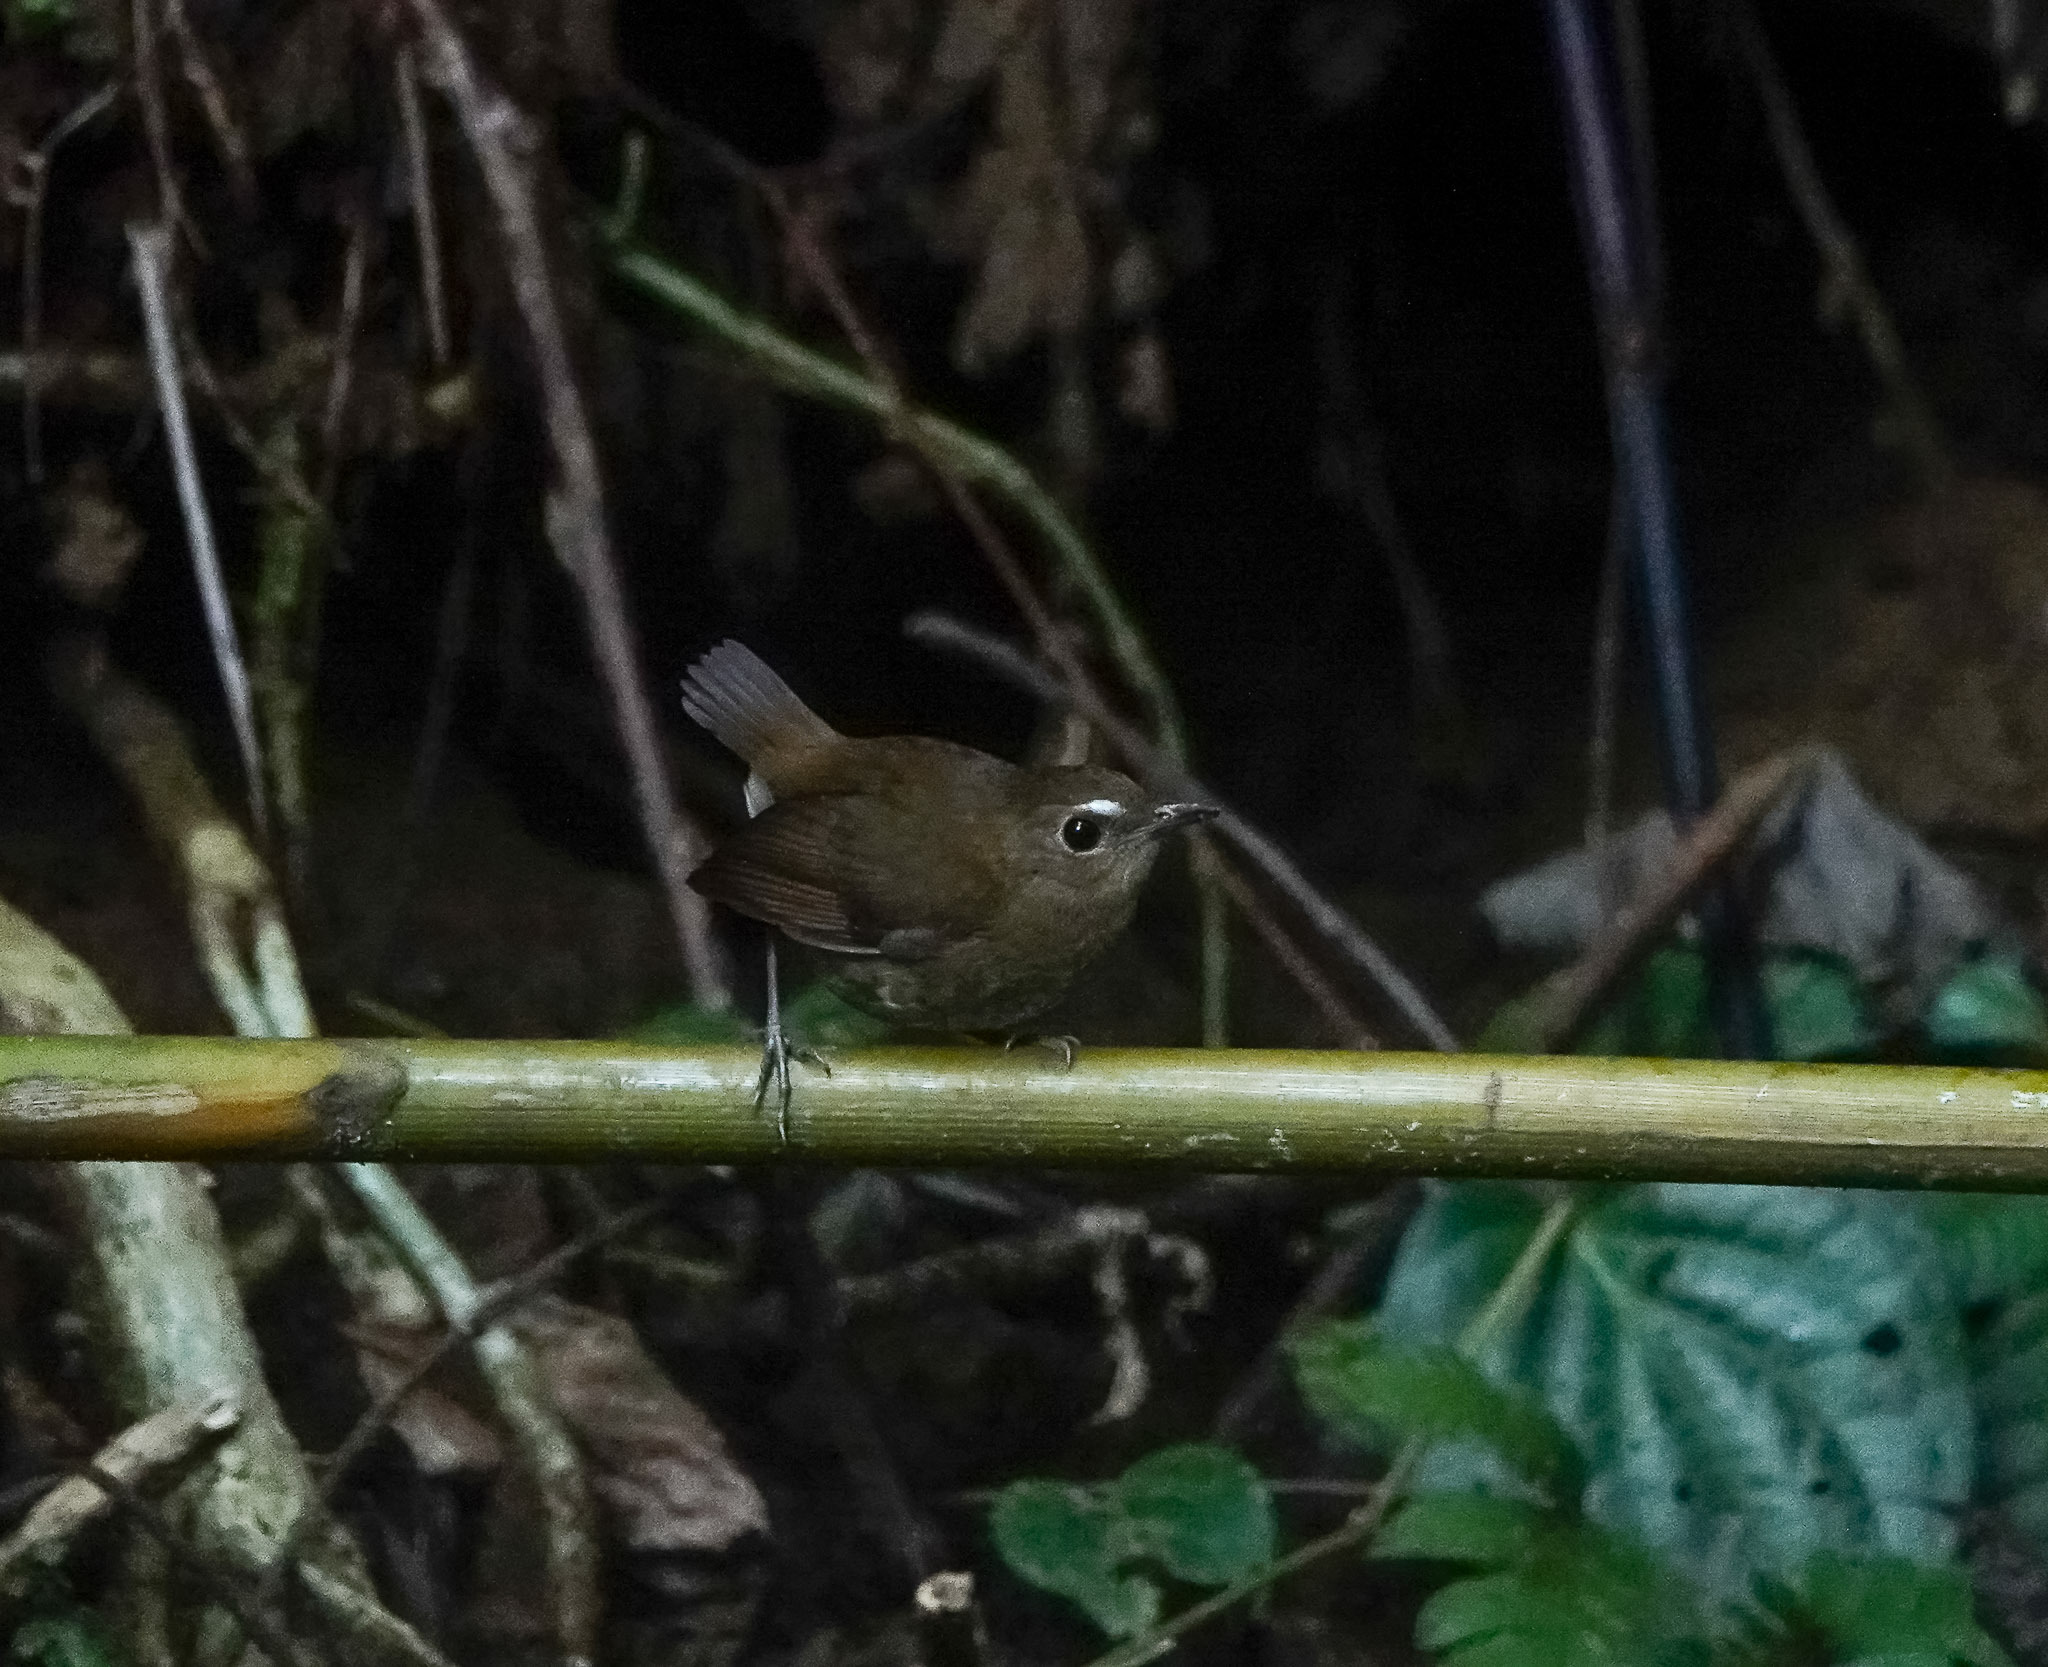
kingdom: Animalia
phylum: Chordata
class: Aves
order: Passeriformes
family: Muscicapidae
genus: Brachypteryx
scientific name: Brachypteryx leucophris
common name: Lesser shortwing
